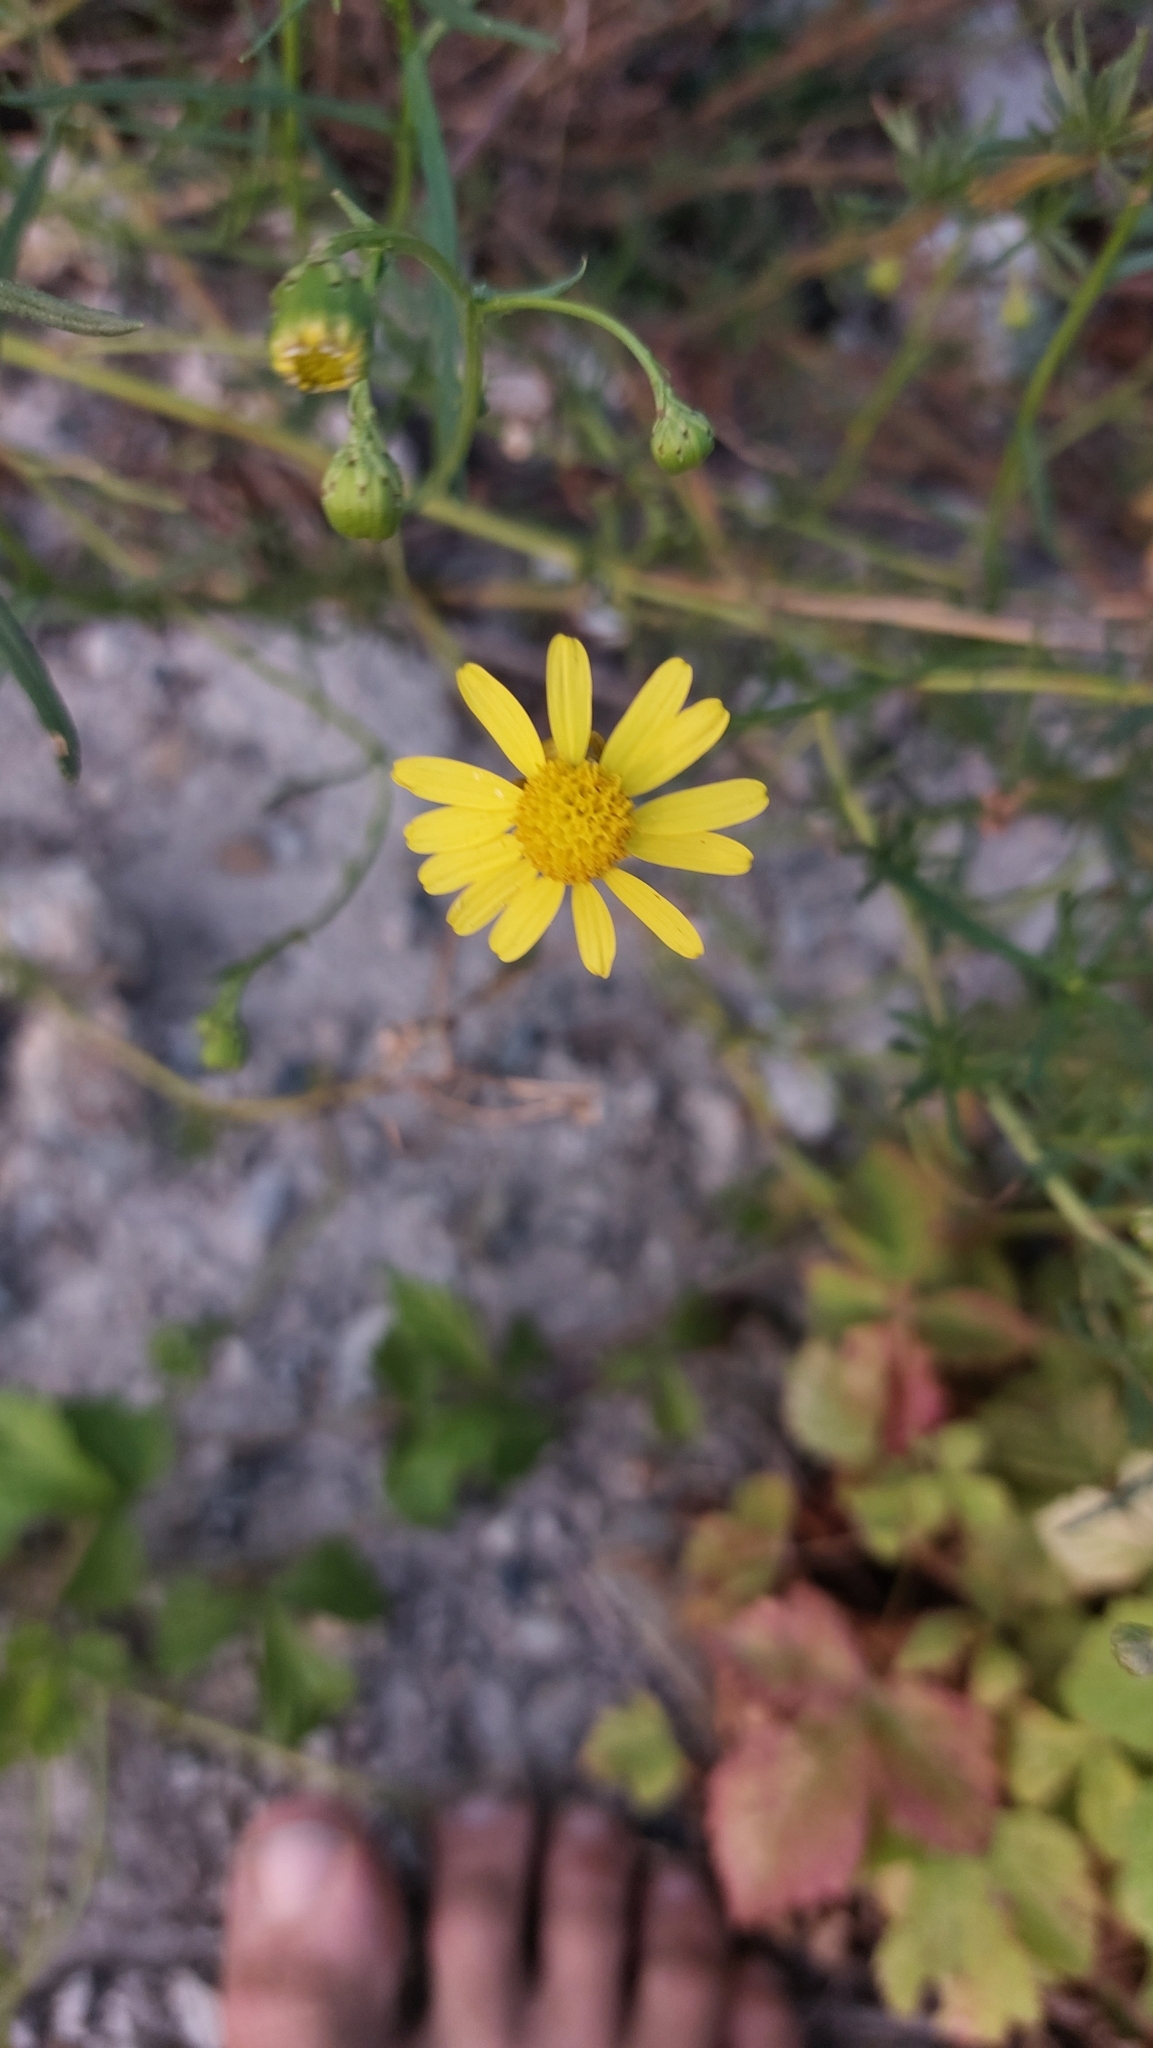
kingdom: Plantae
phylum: Tracheophyta
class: Magnoliopsida
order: Asterales
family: Asteraceae
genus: Senecio
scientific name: Senecio inaequidens
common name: Narrow-leaved ragwort
